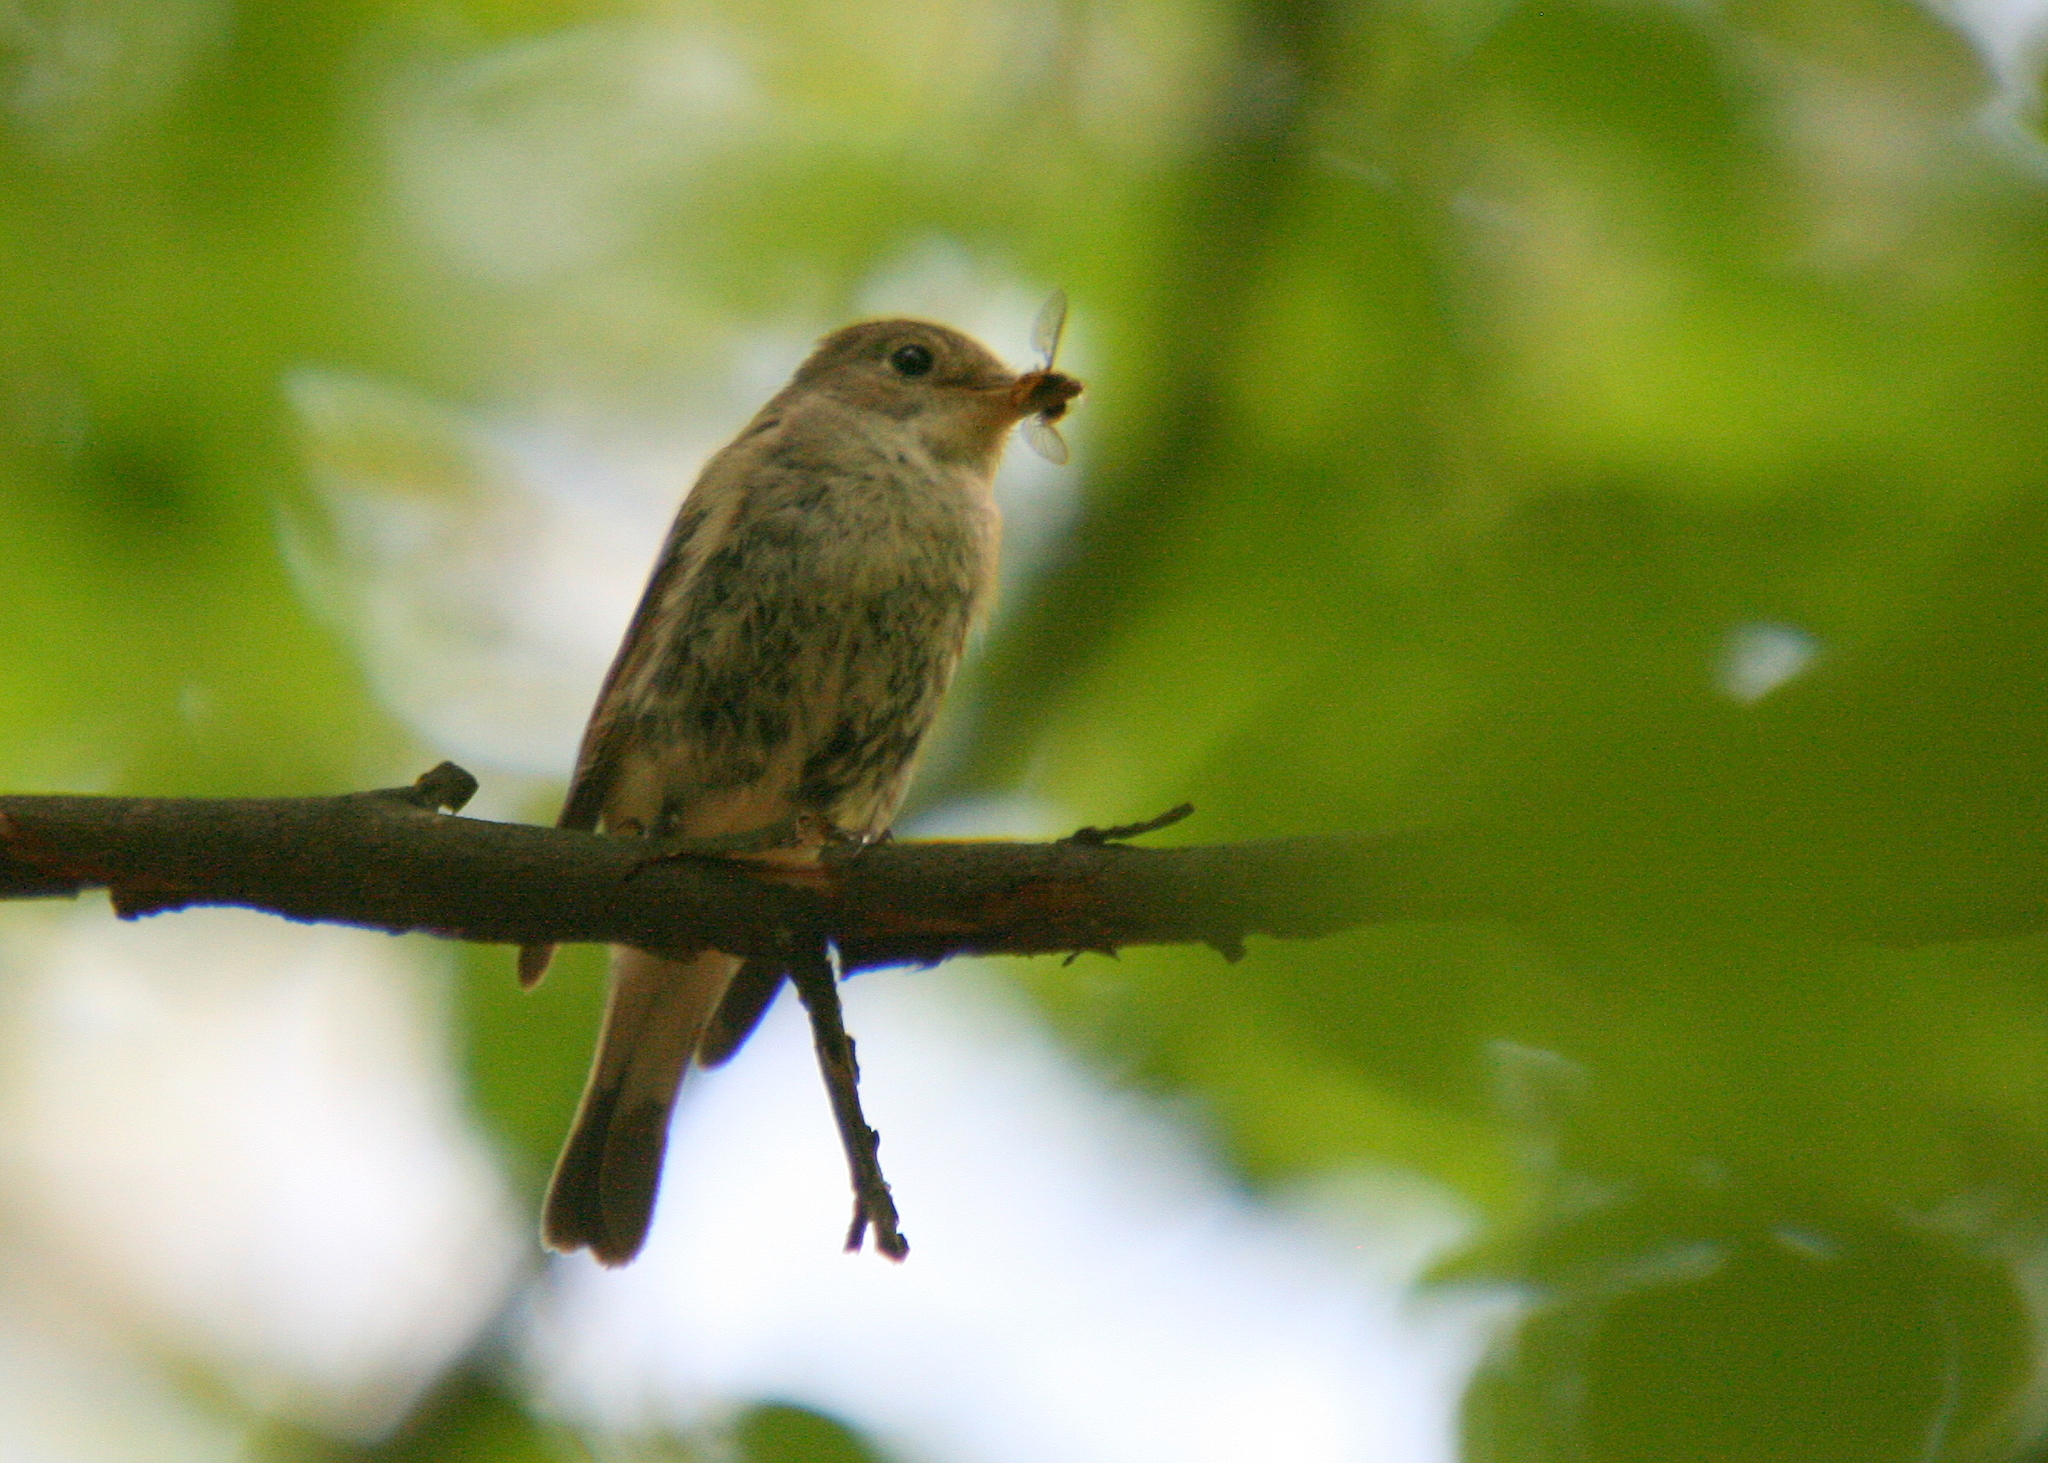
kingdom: Animalia
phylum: Chordata
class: Aves
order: Passeriformes
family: Muscicapidae
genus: Ficedula
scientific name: Ficedula parva
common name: Red-breasted flycatcher
